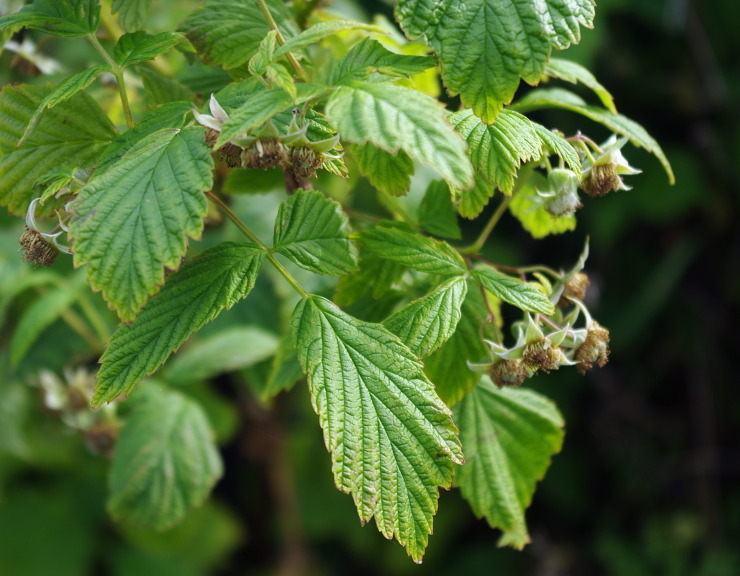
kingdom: Plantae
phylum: Tracheophyta
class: Magnoliopsida
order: Rosales
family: Rosaceae
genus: Rubus
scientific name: Rubus idaeus
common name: Raspberry
